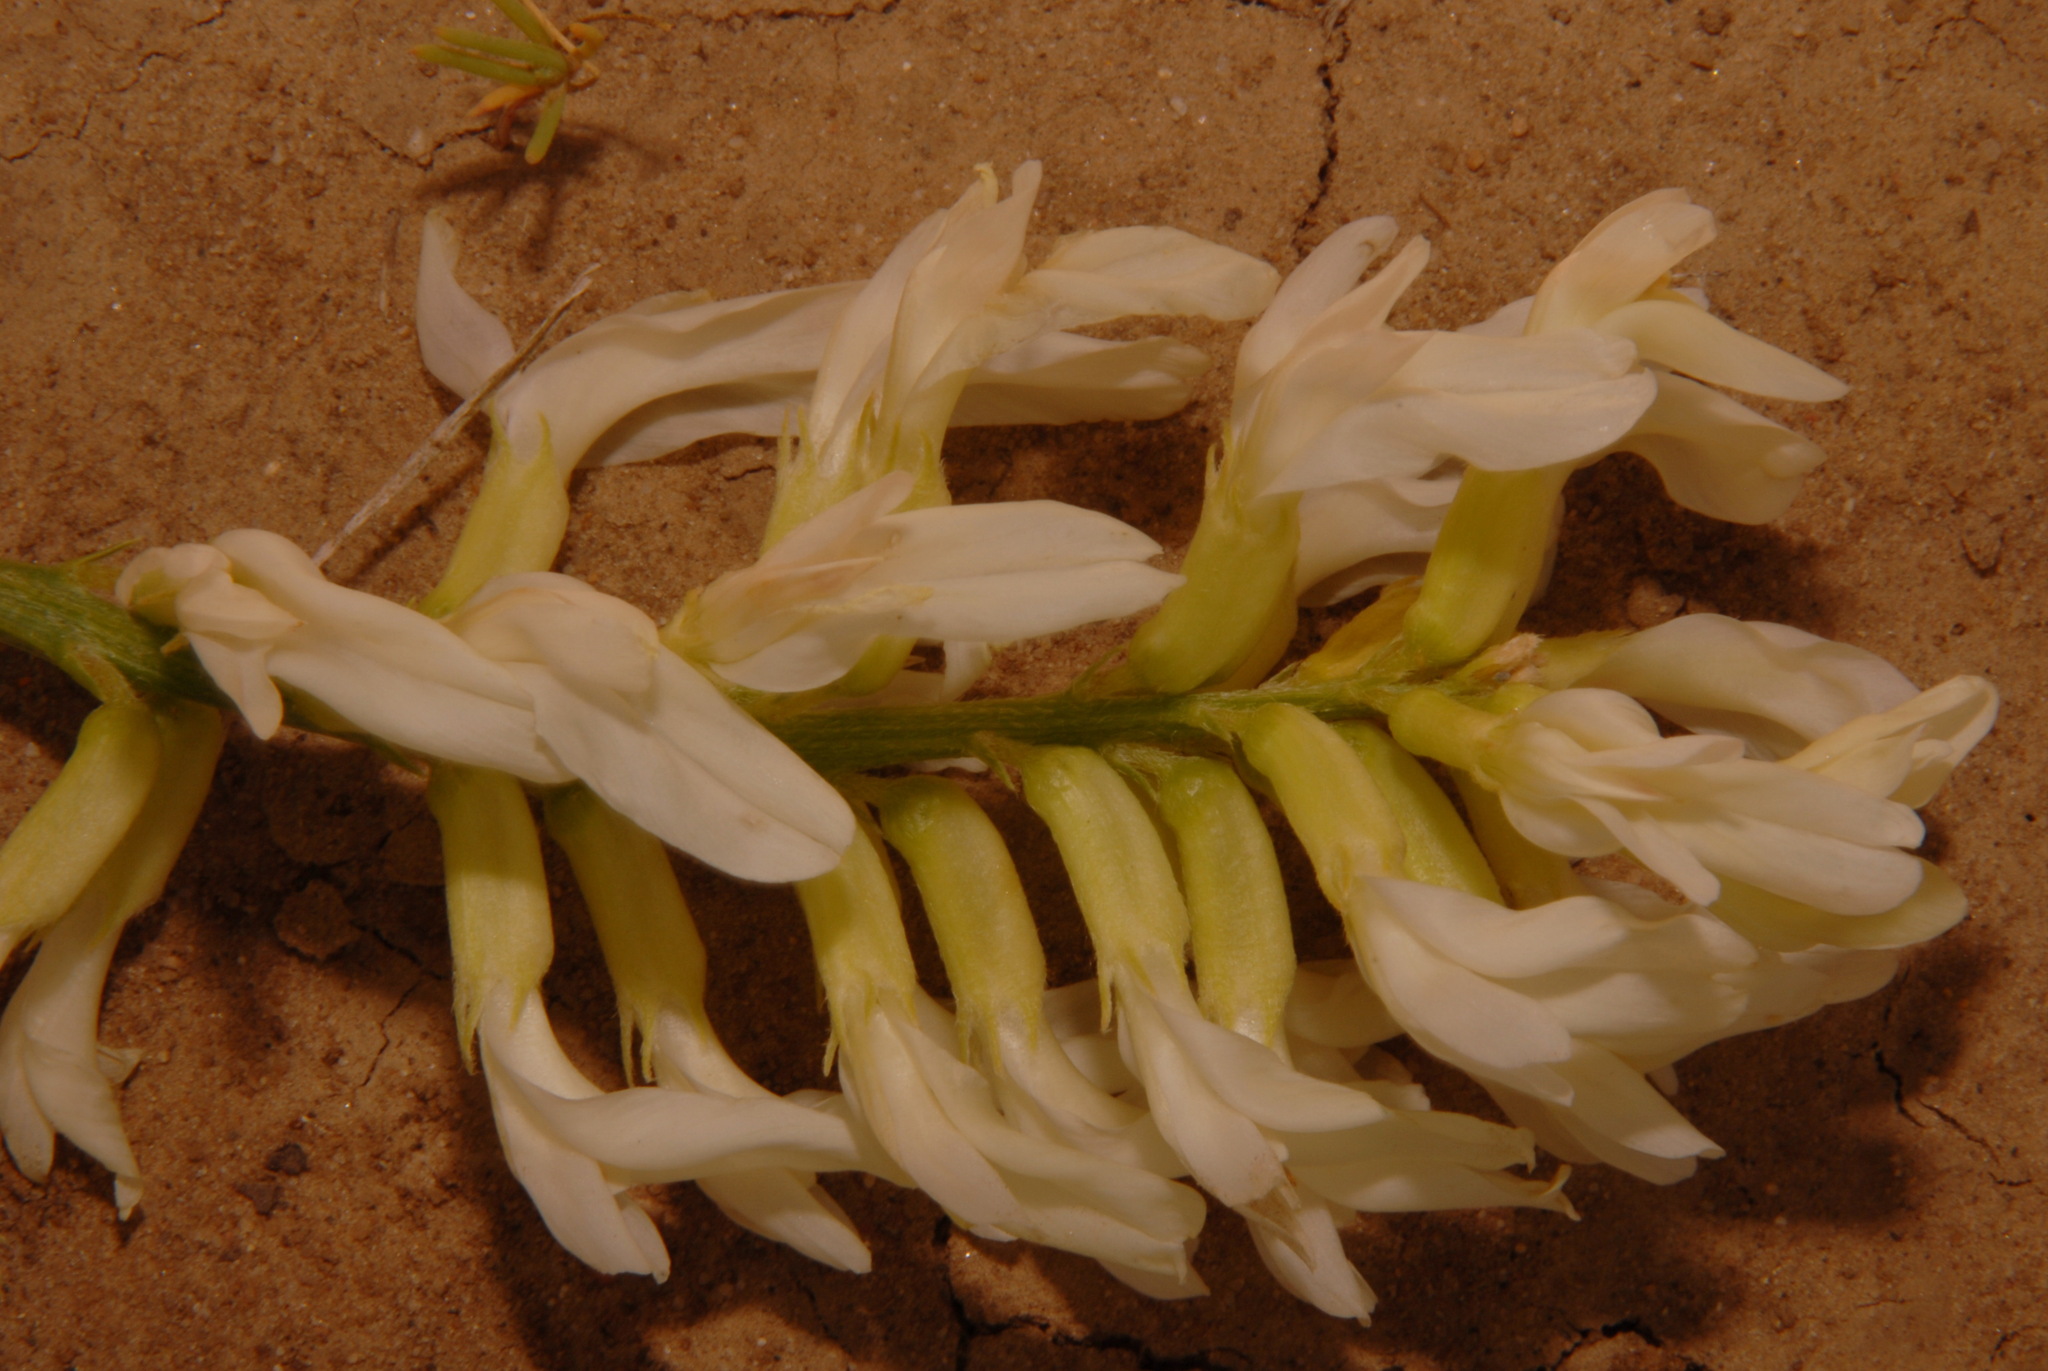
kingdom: Plantae
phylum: Tracheophyta
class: Magnoliopsida
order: Fabales
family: Fabaceae
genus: Astragalus
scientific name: Astragalus pectinatus
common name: Tine-leaf milk-vetch
